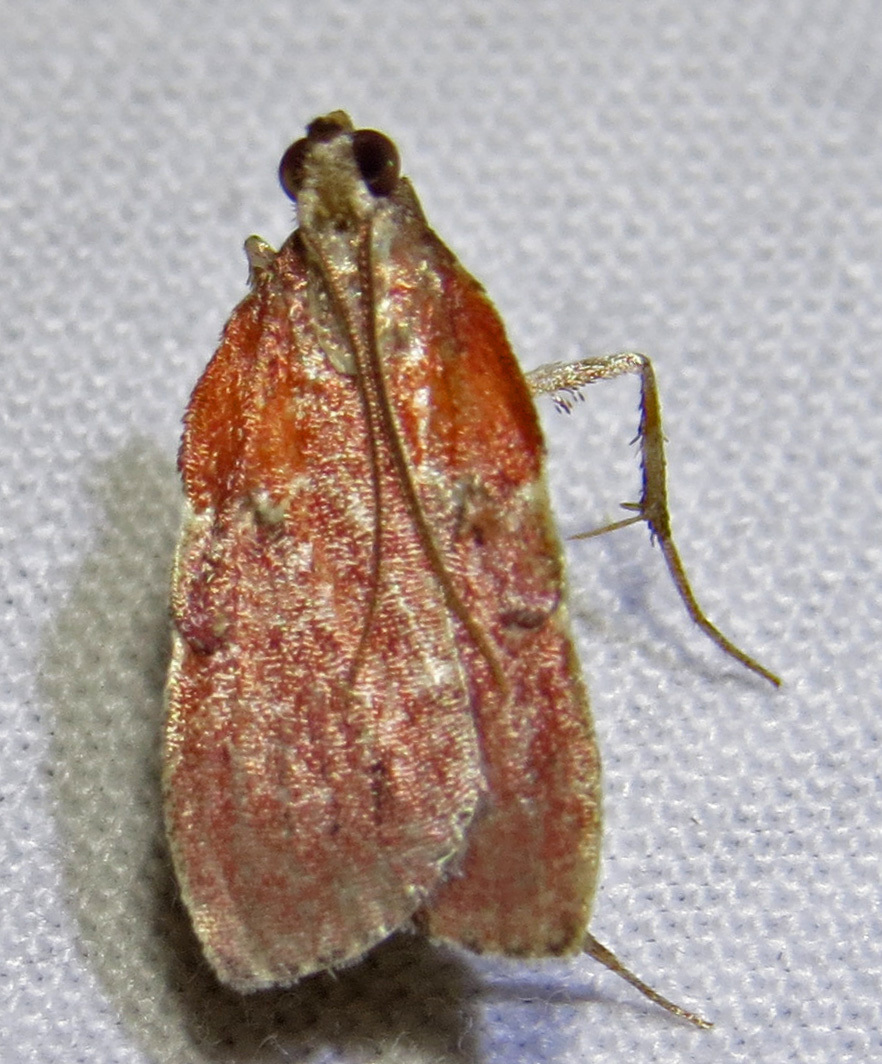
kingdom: Animalia
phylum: Arthropoda
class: Insecta
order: Lepidoptera
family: Pyralidae
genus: Galasa
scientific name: Galasa nigrinodis
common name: Boxwood leaftier moth
